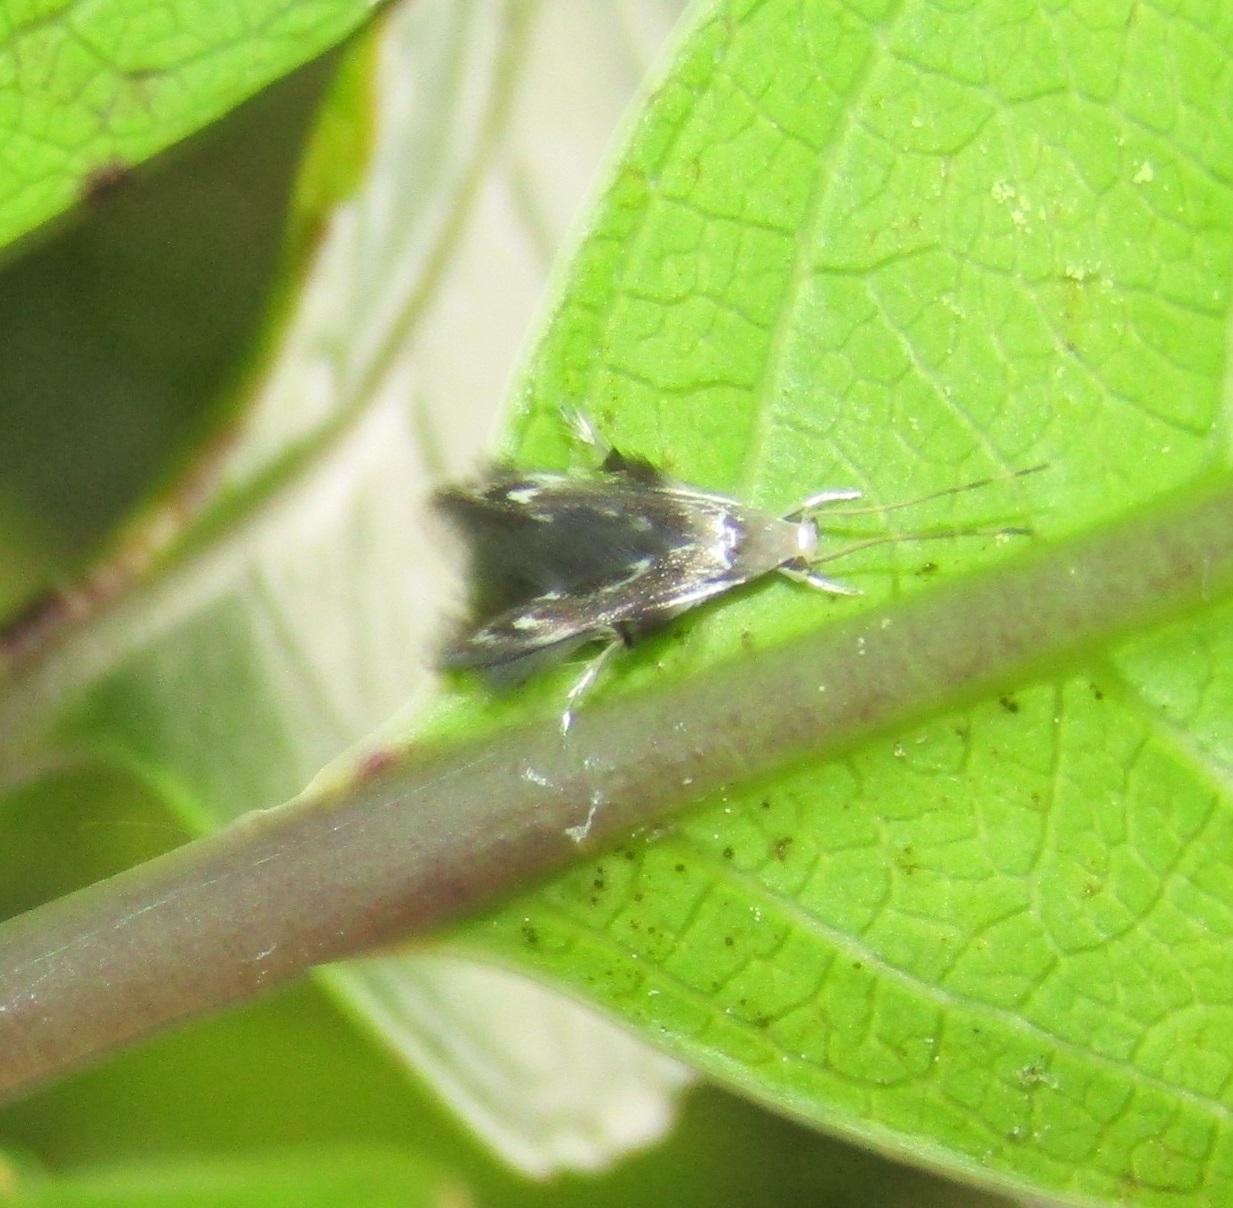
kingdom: Animalia
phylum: Arthropoda
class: Insecta
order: Lepidoptera
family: Stathmopodidae
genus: Thylacosceles
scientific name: Thylacosceles radians
